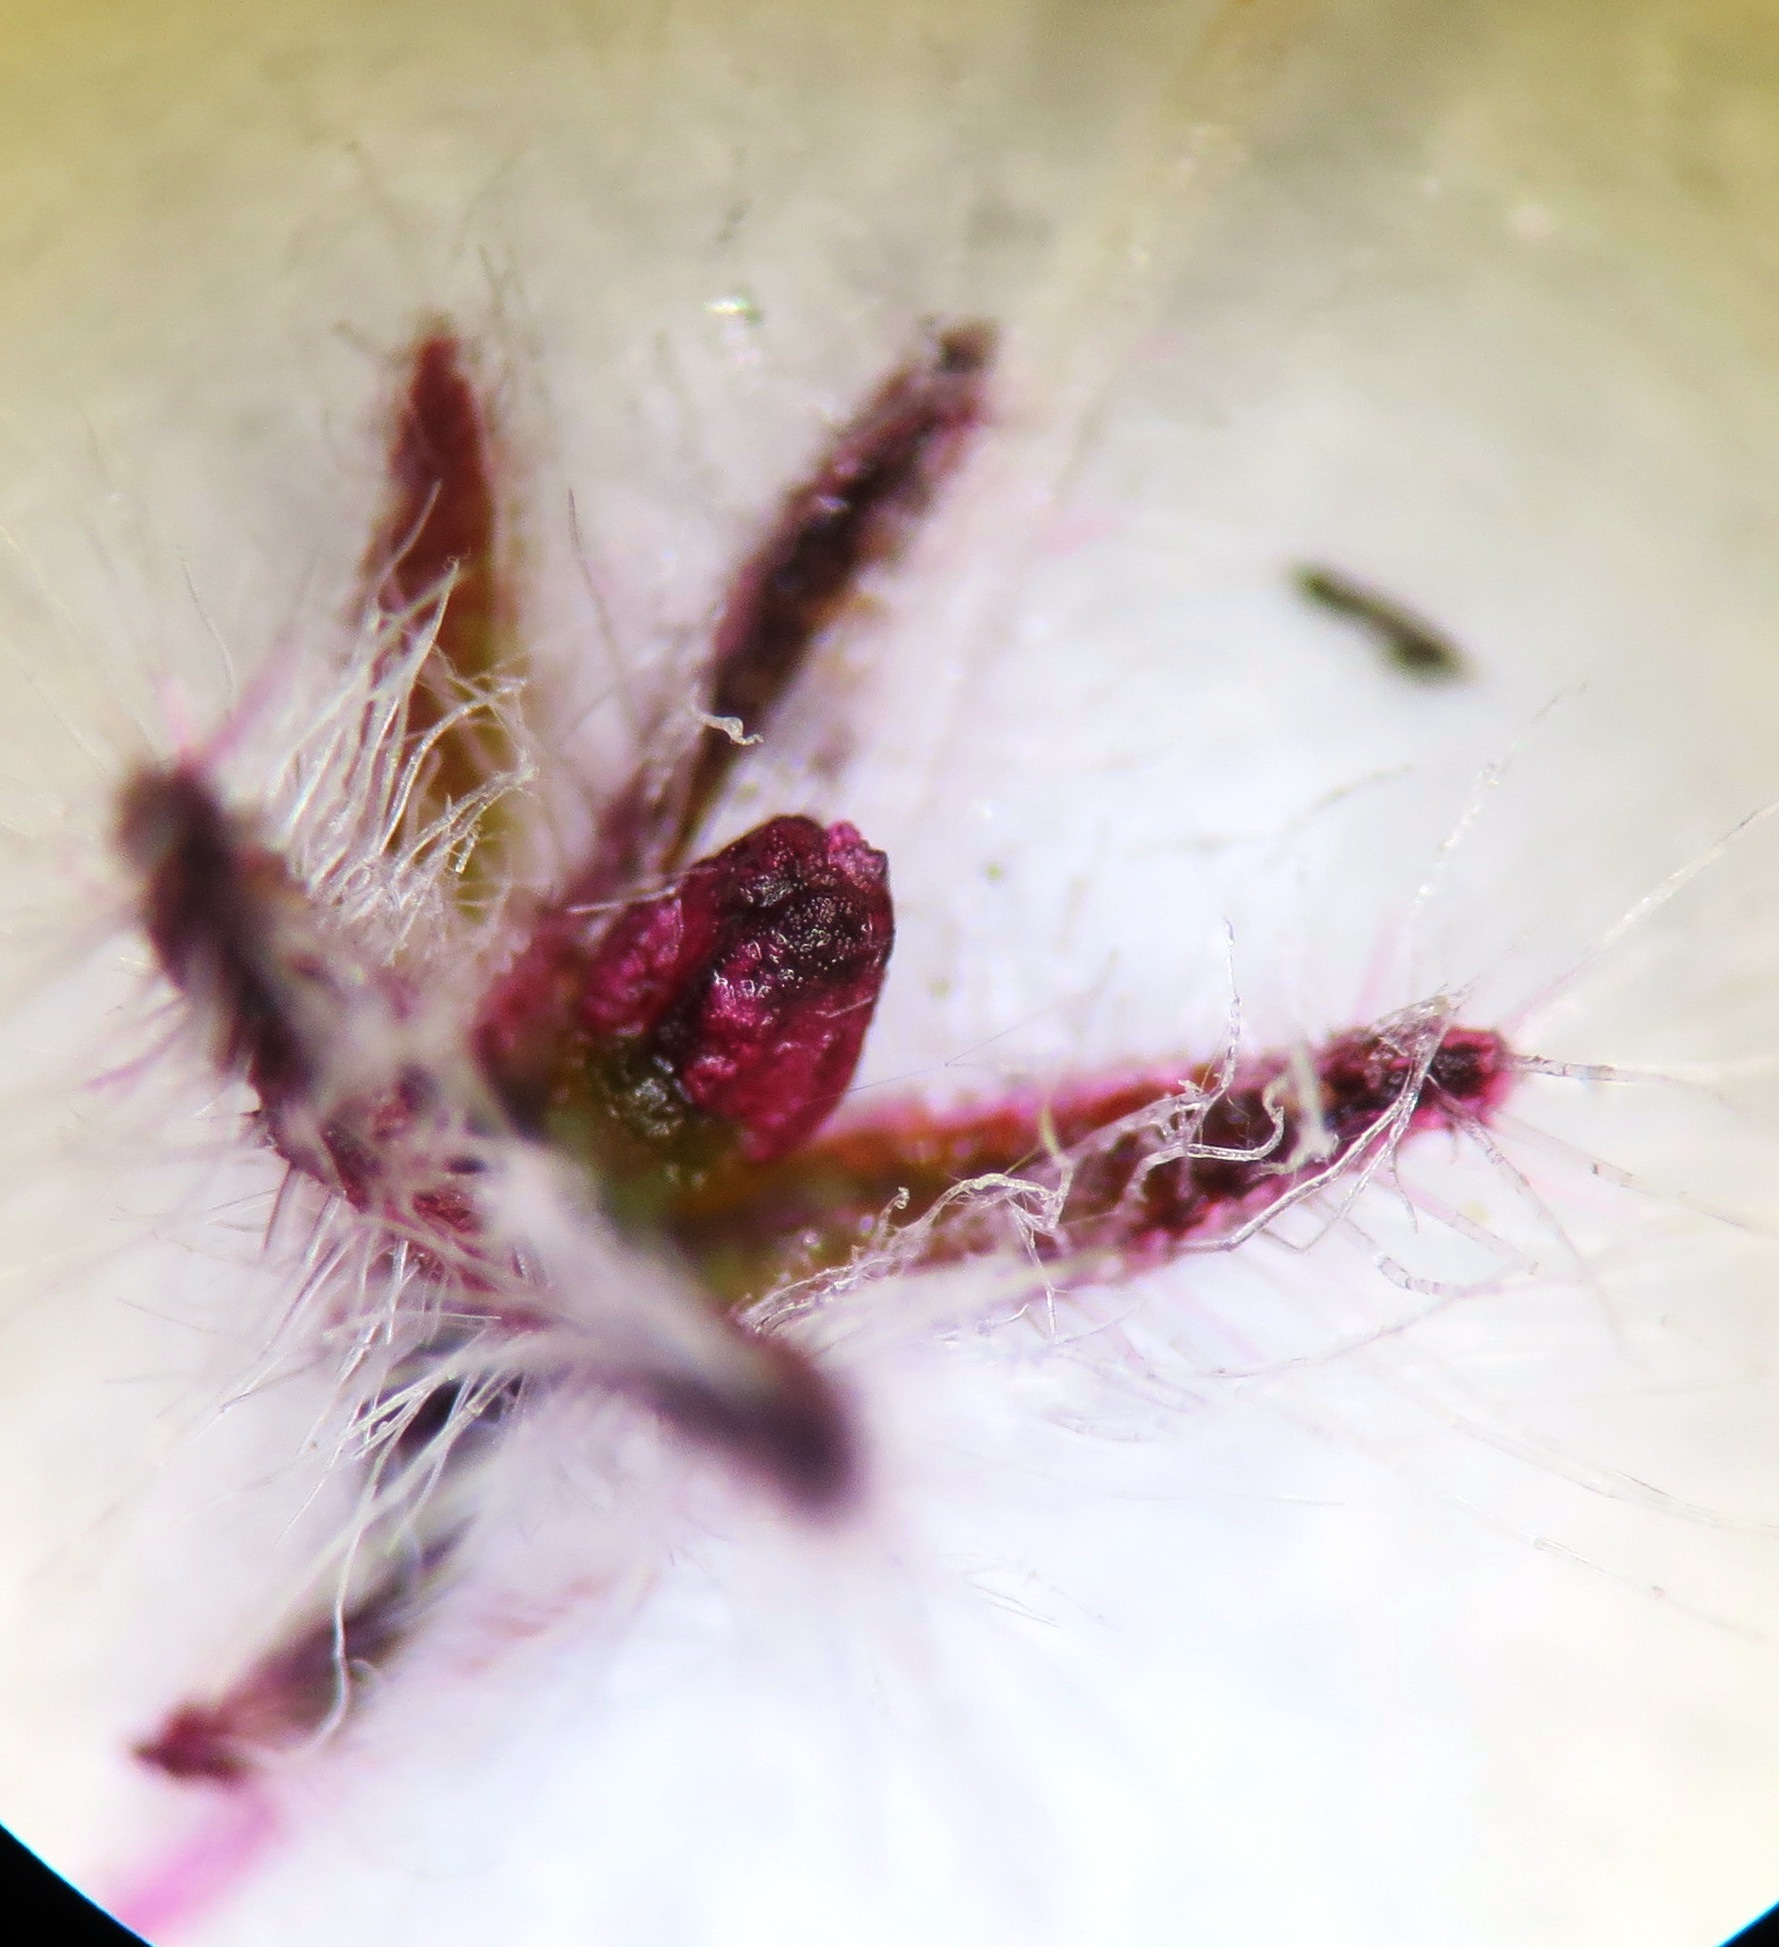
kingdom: Plantae
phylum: Tracheophyta
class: Magnoliopsida
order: Ericales
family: Ericaceae
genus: Erica
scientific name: Erica eriocephala
